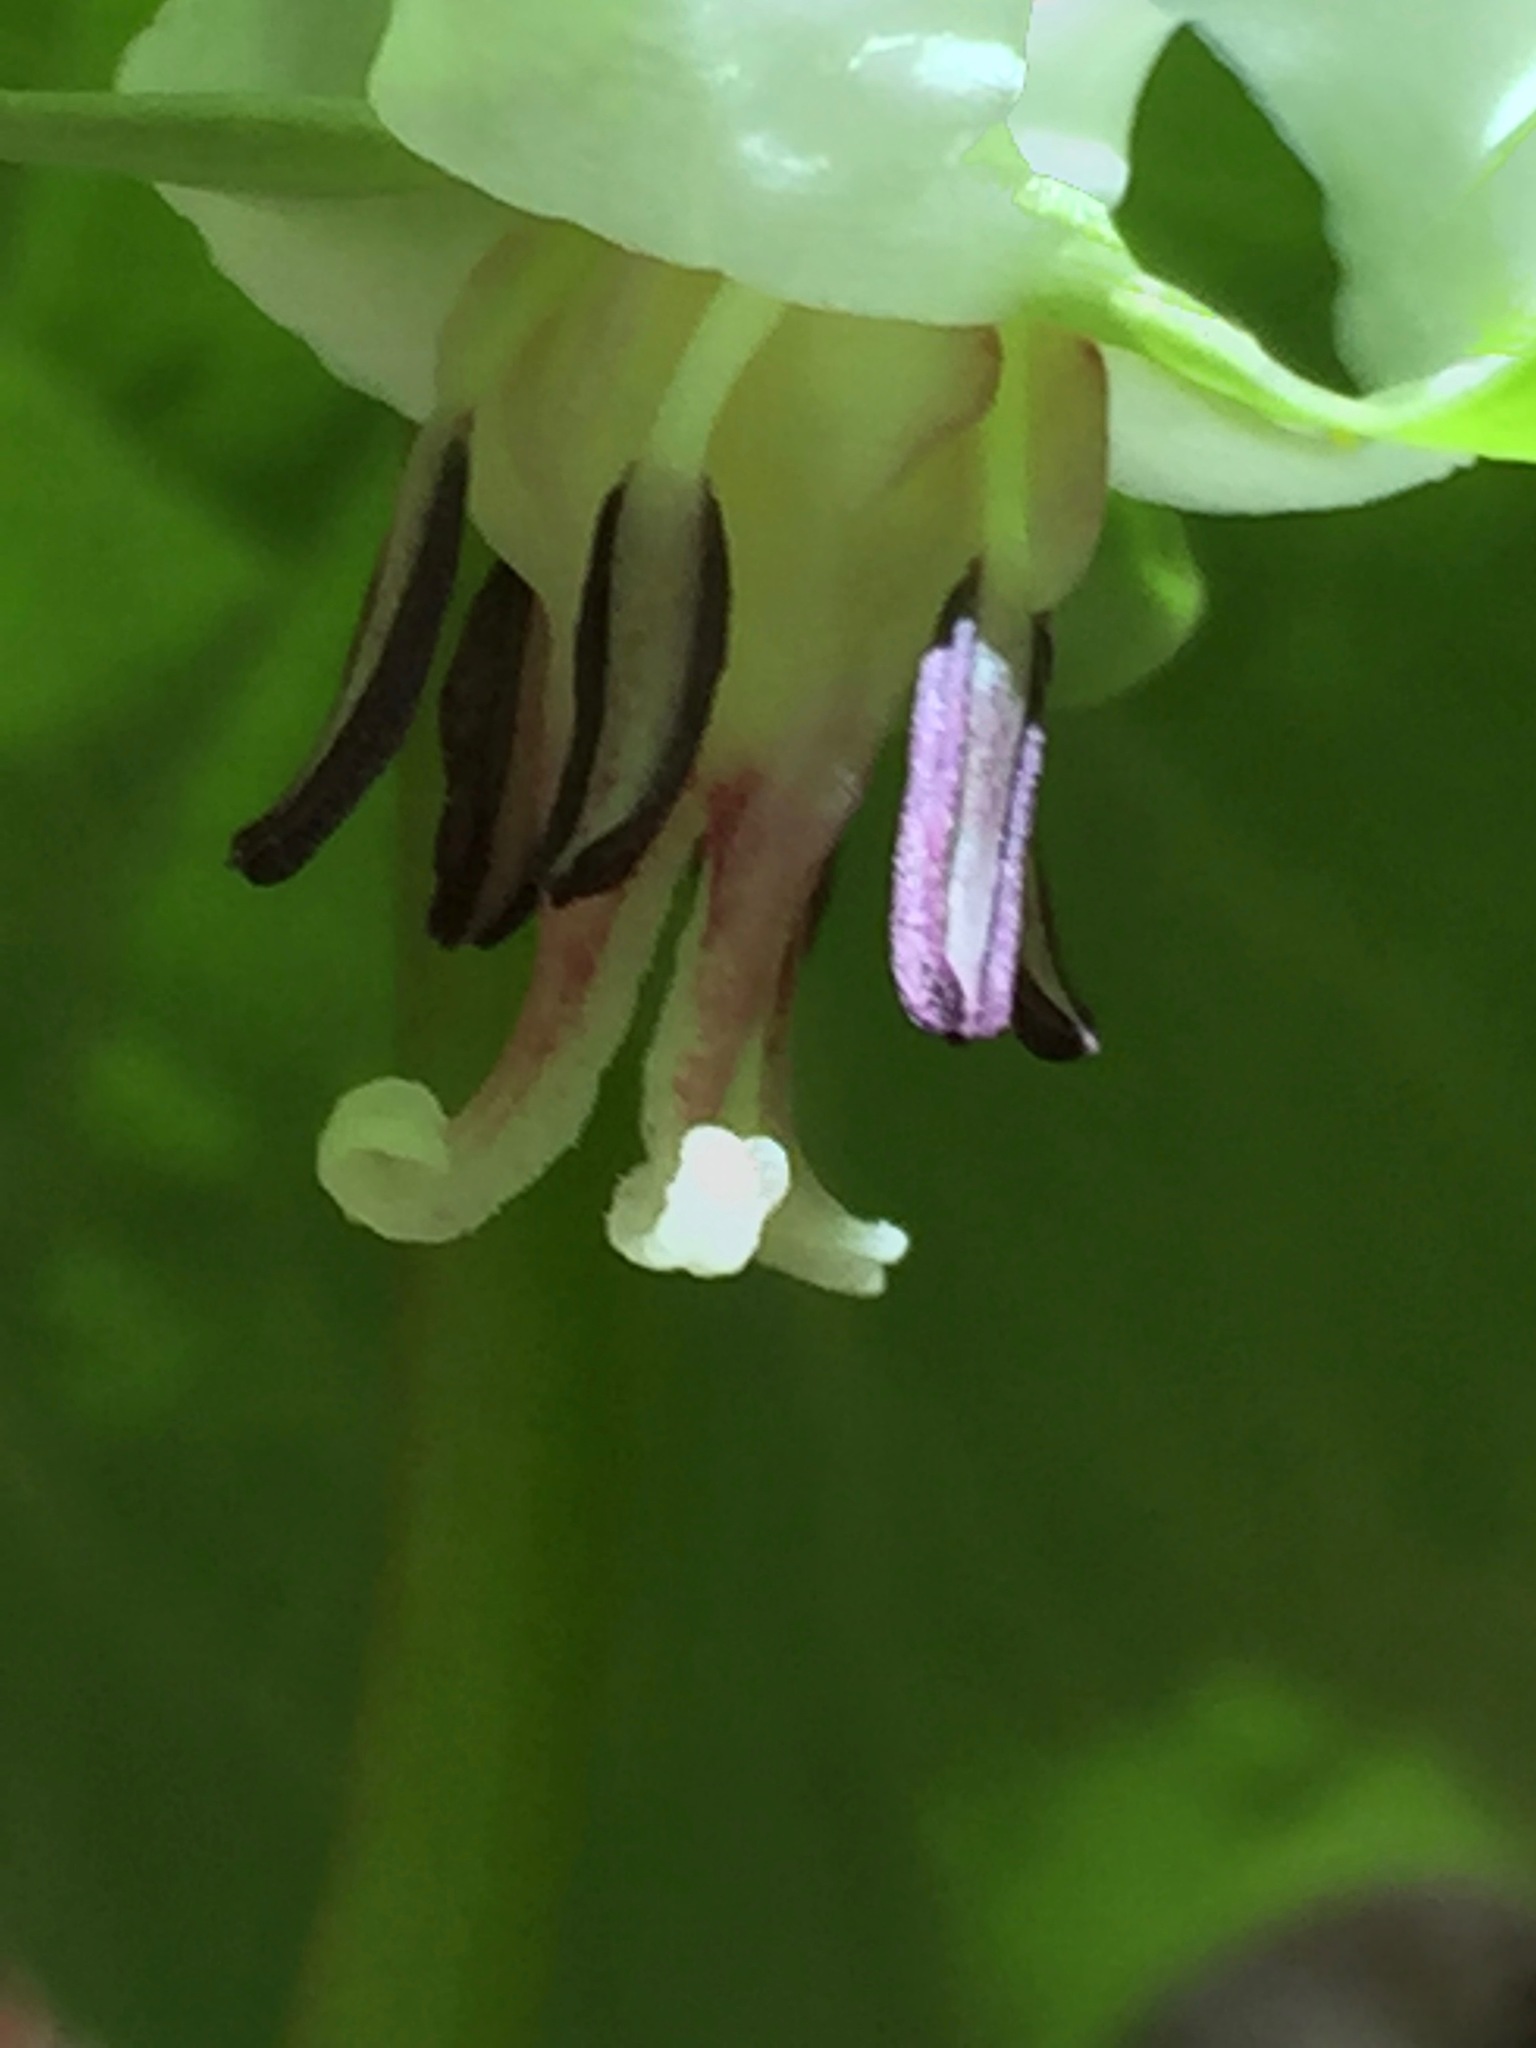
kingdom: Plantae
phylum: Tracheophyta
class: Liliopsida
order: Liliales
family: Melanthiaceae
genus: Trillium
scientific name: Trillium cernuum
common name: Nodding trillium
